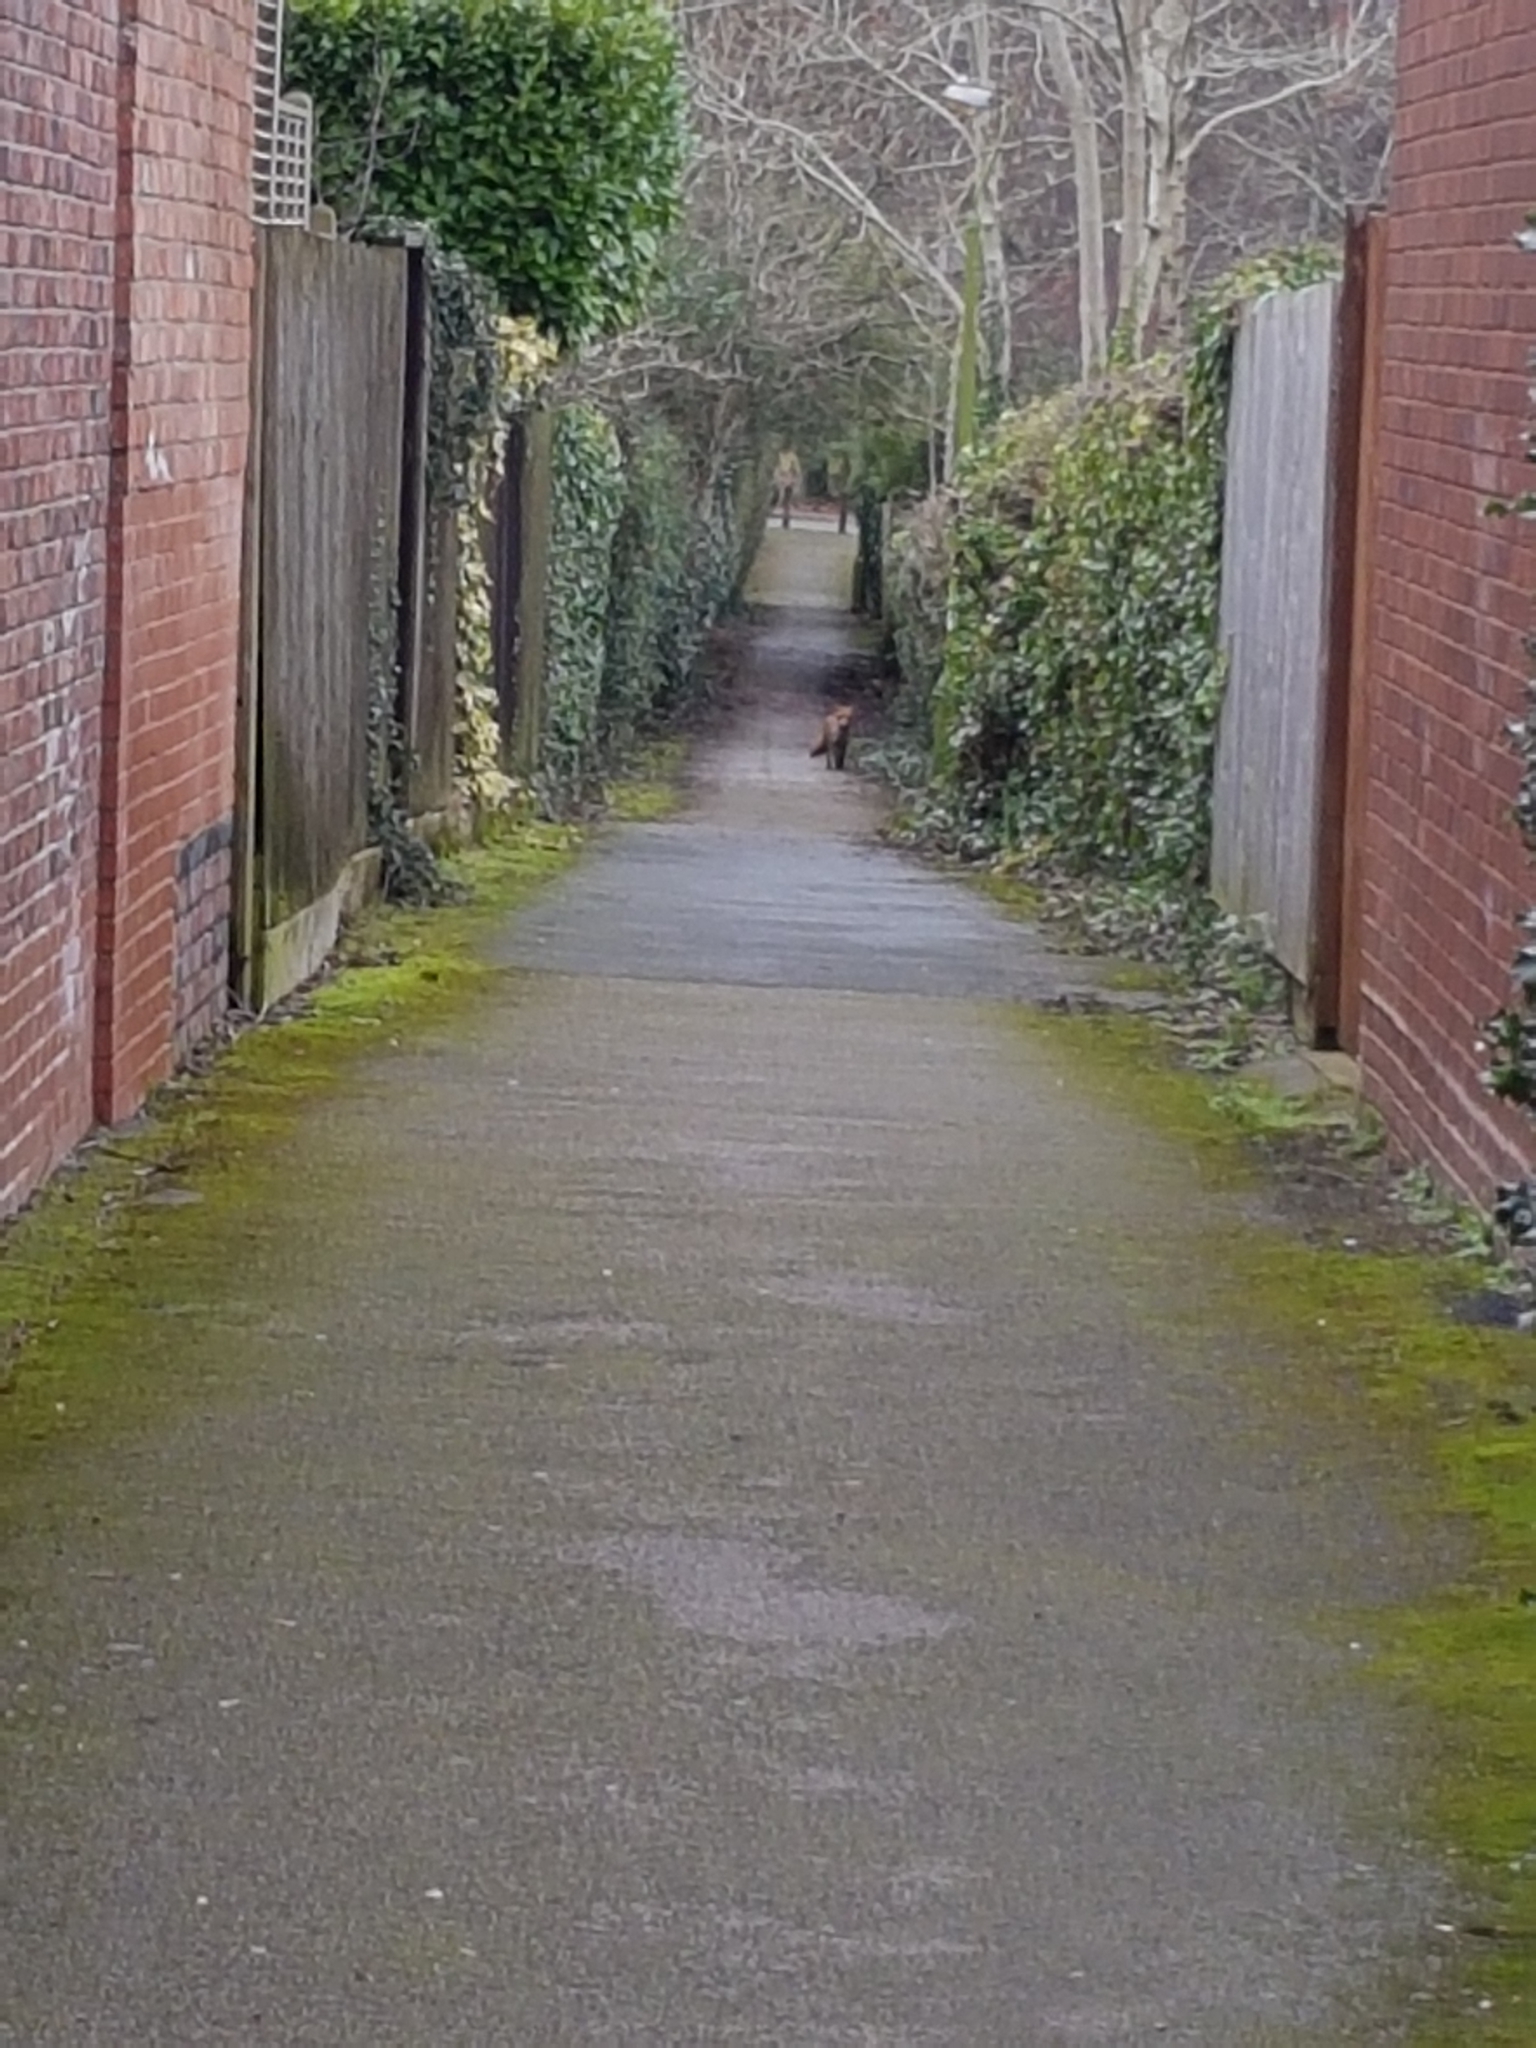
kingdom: Animalia
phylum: Chordata
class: Mammalia
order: Carnivora
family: Canidae
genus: Vulpes
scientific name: Vulpes vulpes
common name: Red fox
